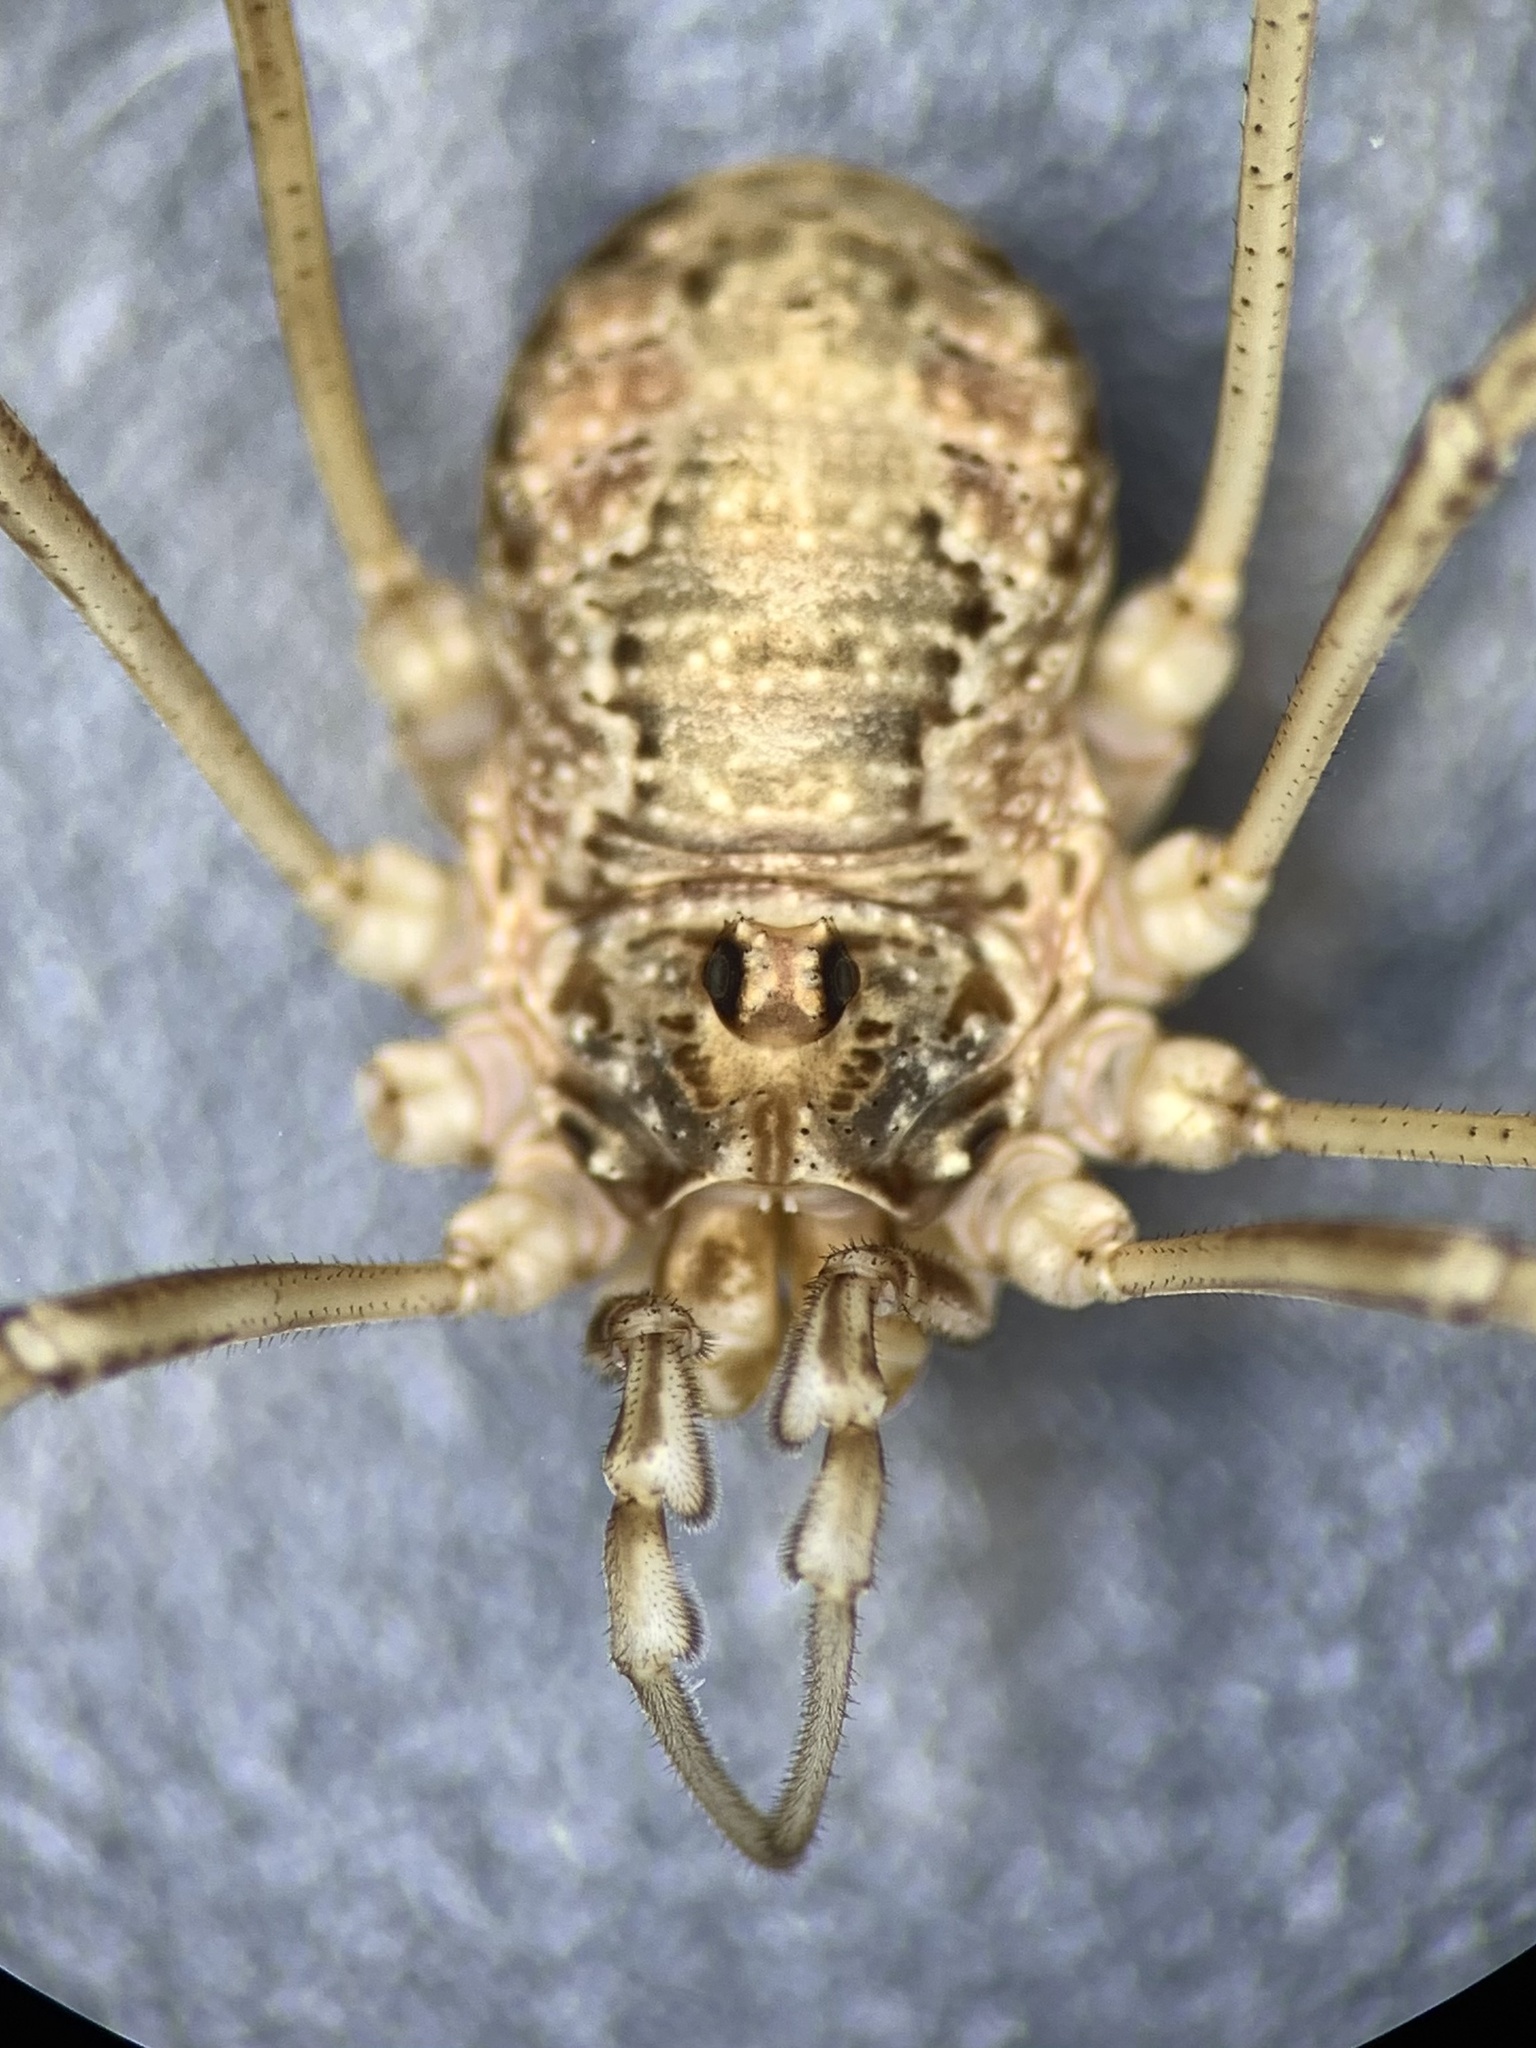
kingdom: Animalia
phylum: Arthropoda
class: Arachnida
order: Opiliones
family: Phalangiidae
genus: Dasylobus
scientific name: Dasylobus graniferus
